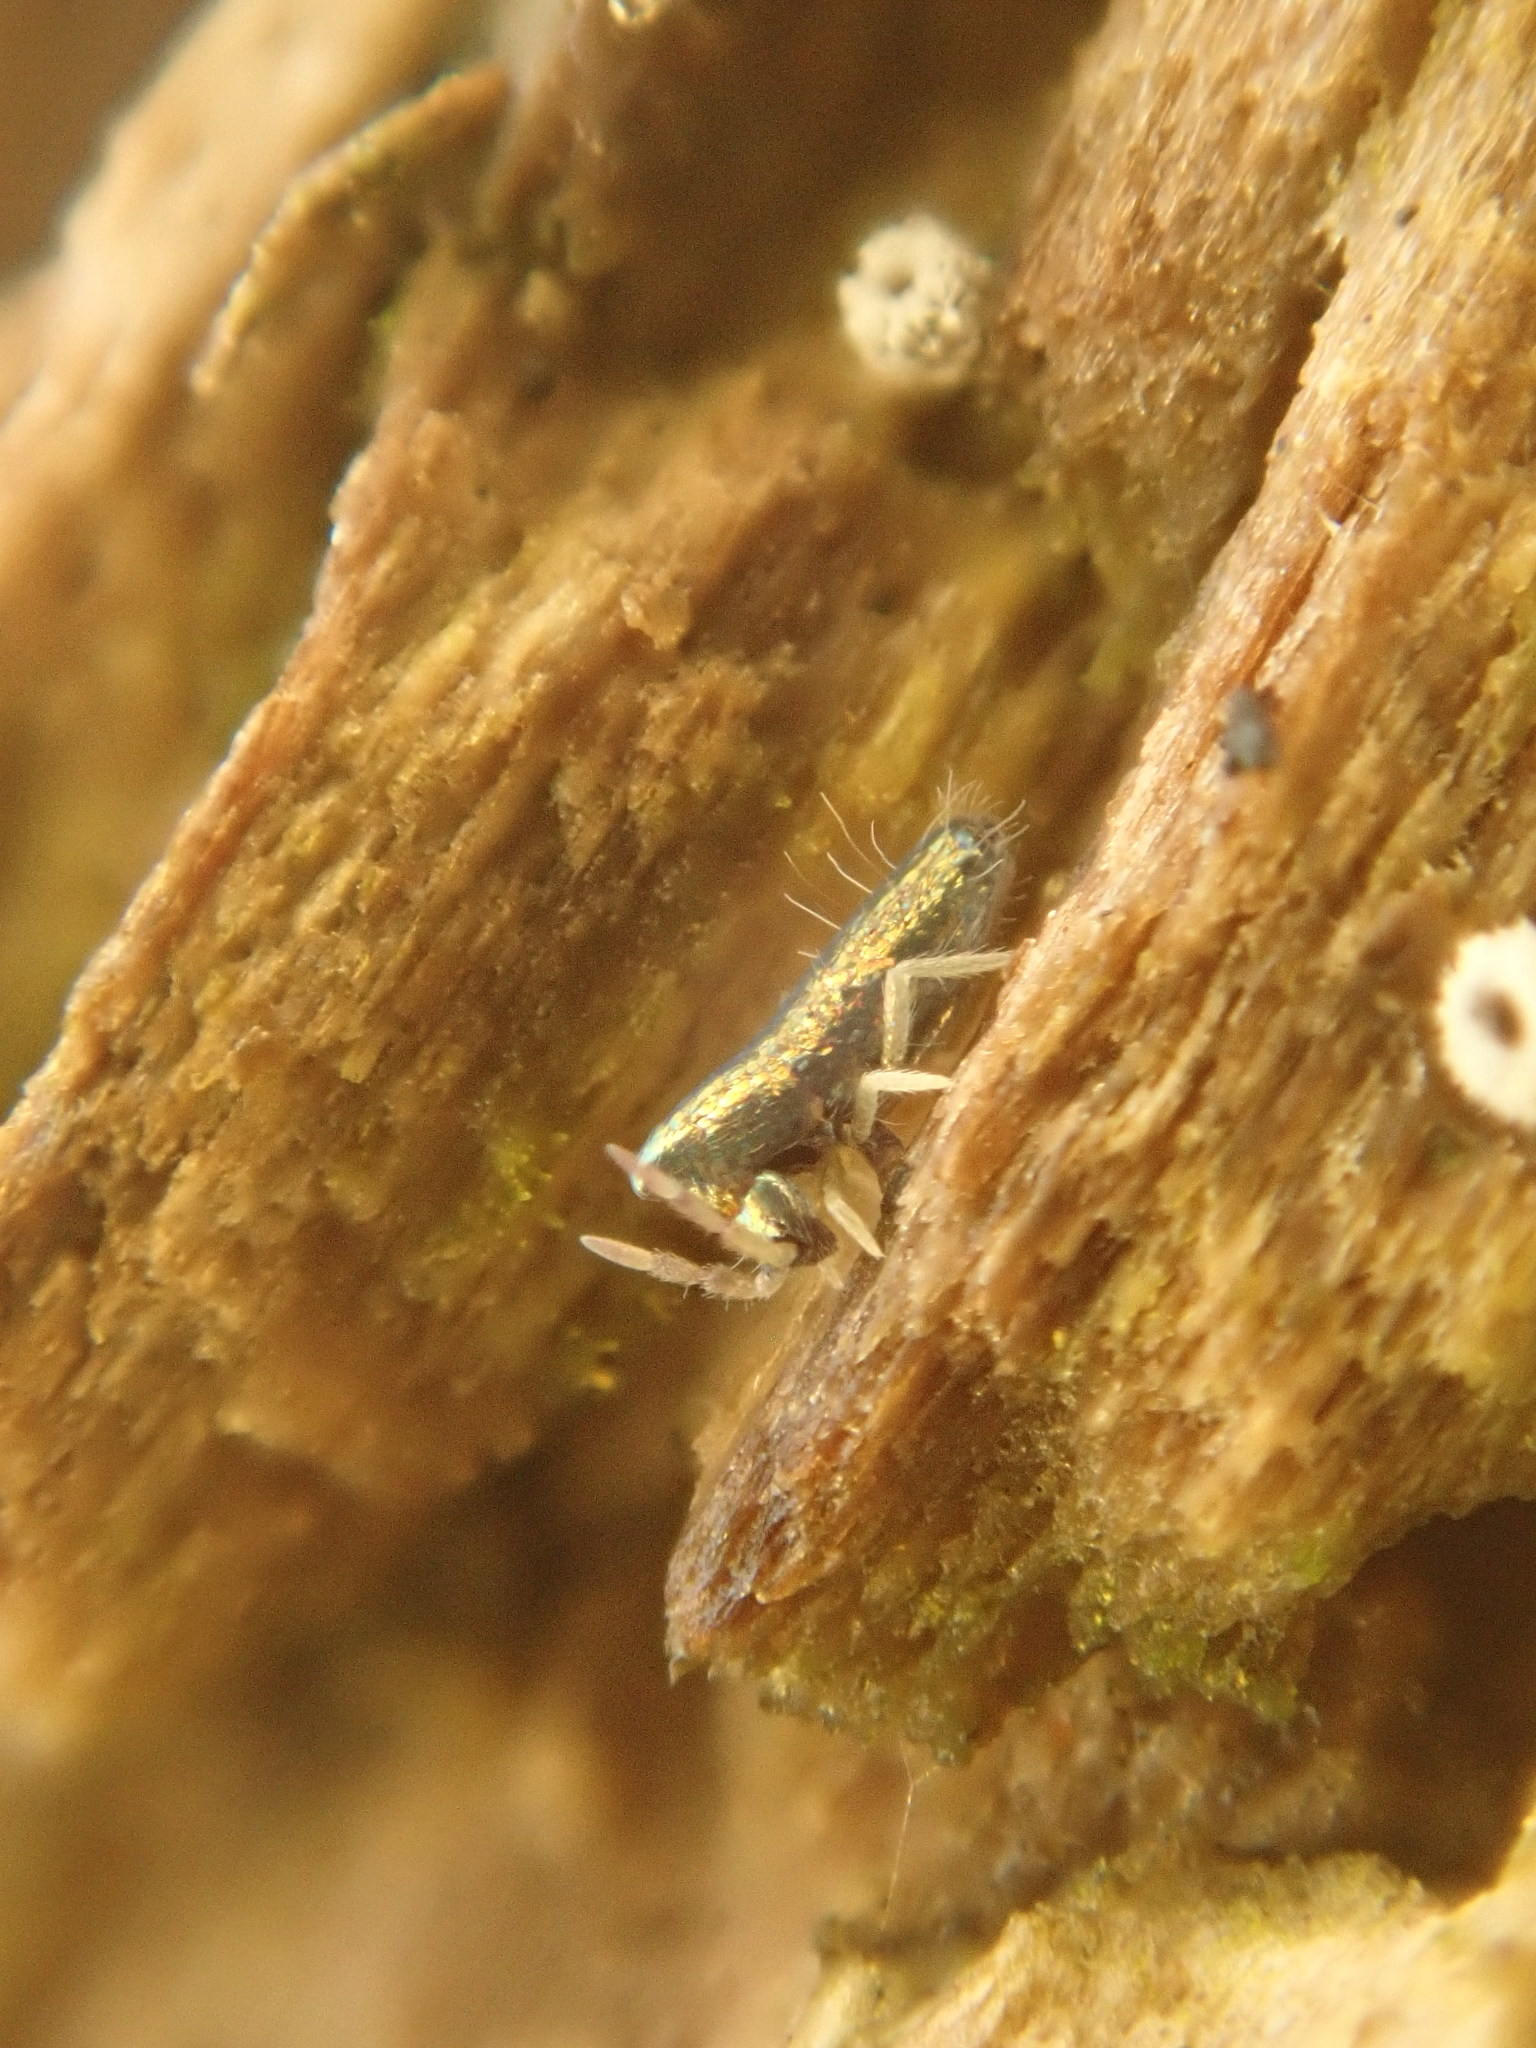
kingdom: Animalia
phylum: Arthropoda
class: Collembola
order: Entomobryomorpha
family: Entomobryidae
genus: Lepidocyrtus
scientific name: Lepidocyrtus paradoxus
